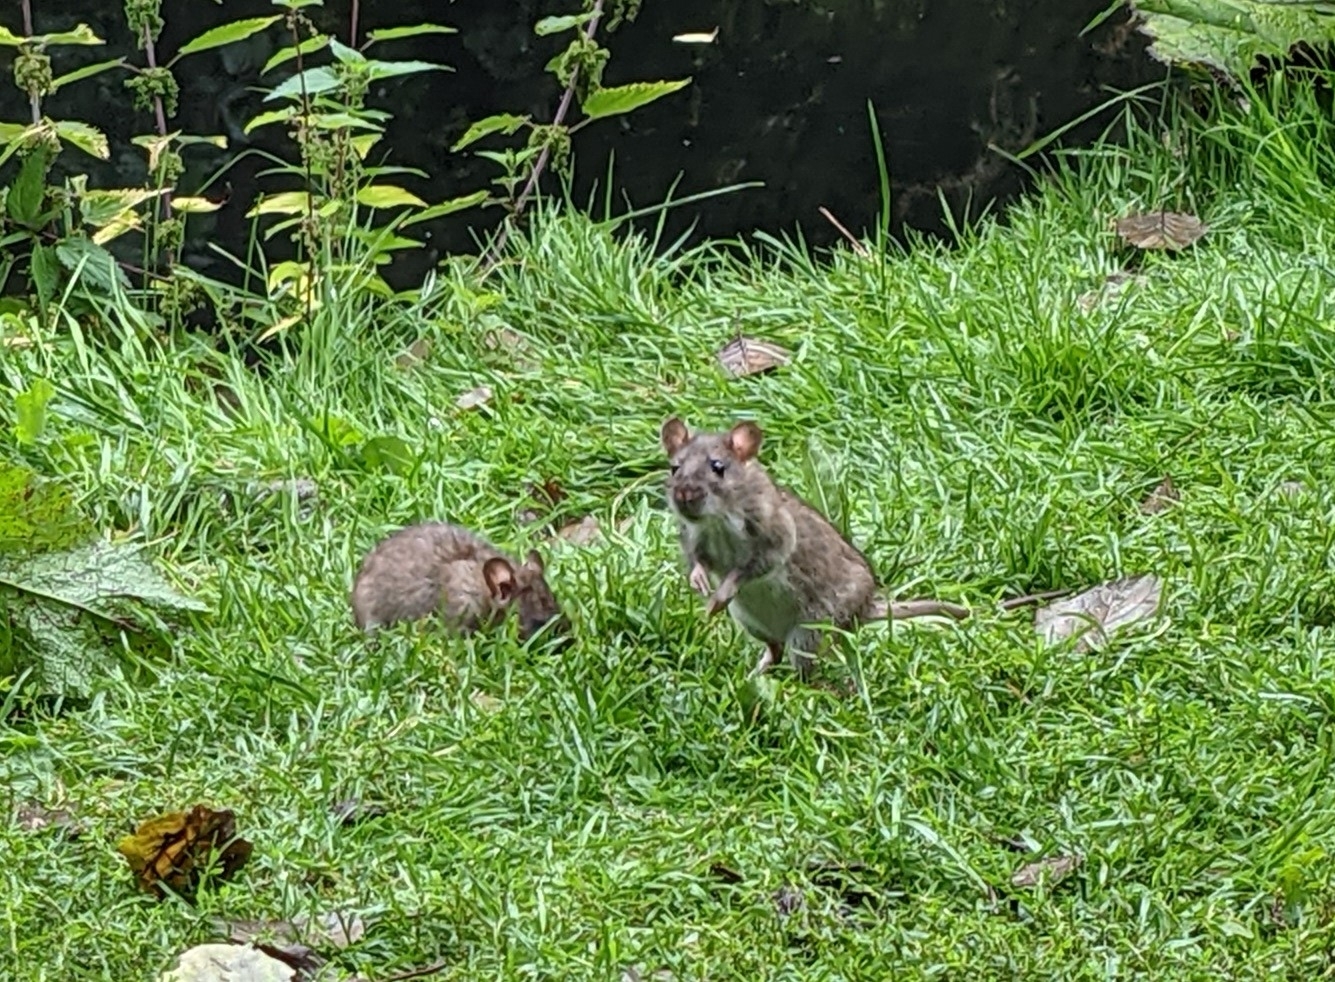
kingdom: Animalia
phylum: Chordata
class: Mammalia
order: Rodentia
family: Muridae
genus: Rattus
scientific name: Rattus norvegicus
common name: Brown rat
